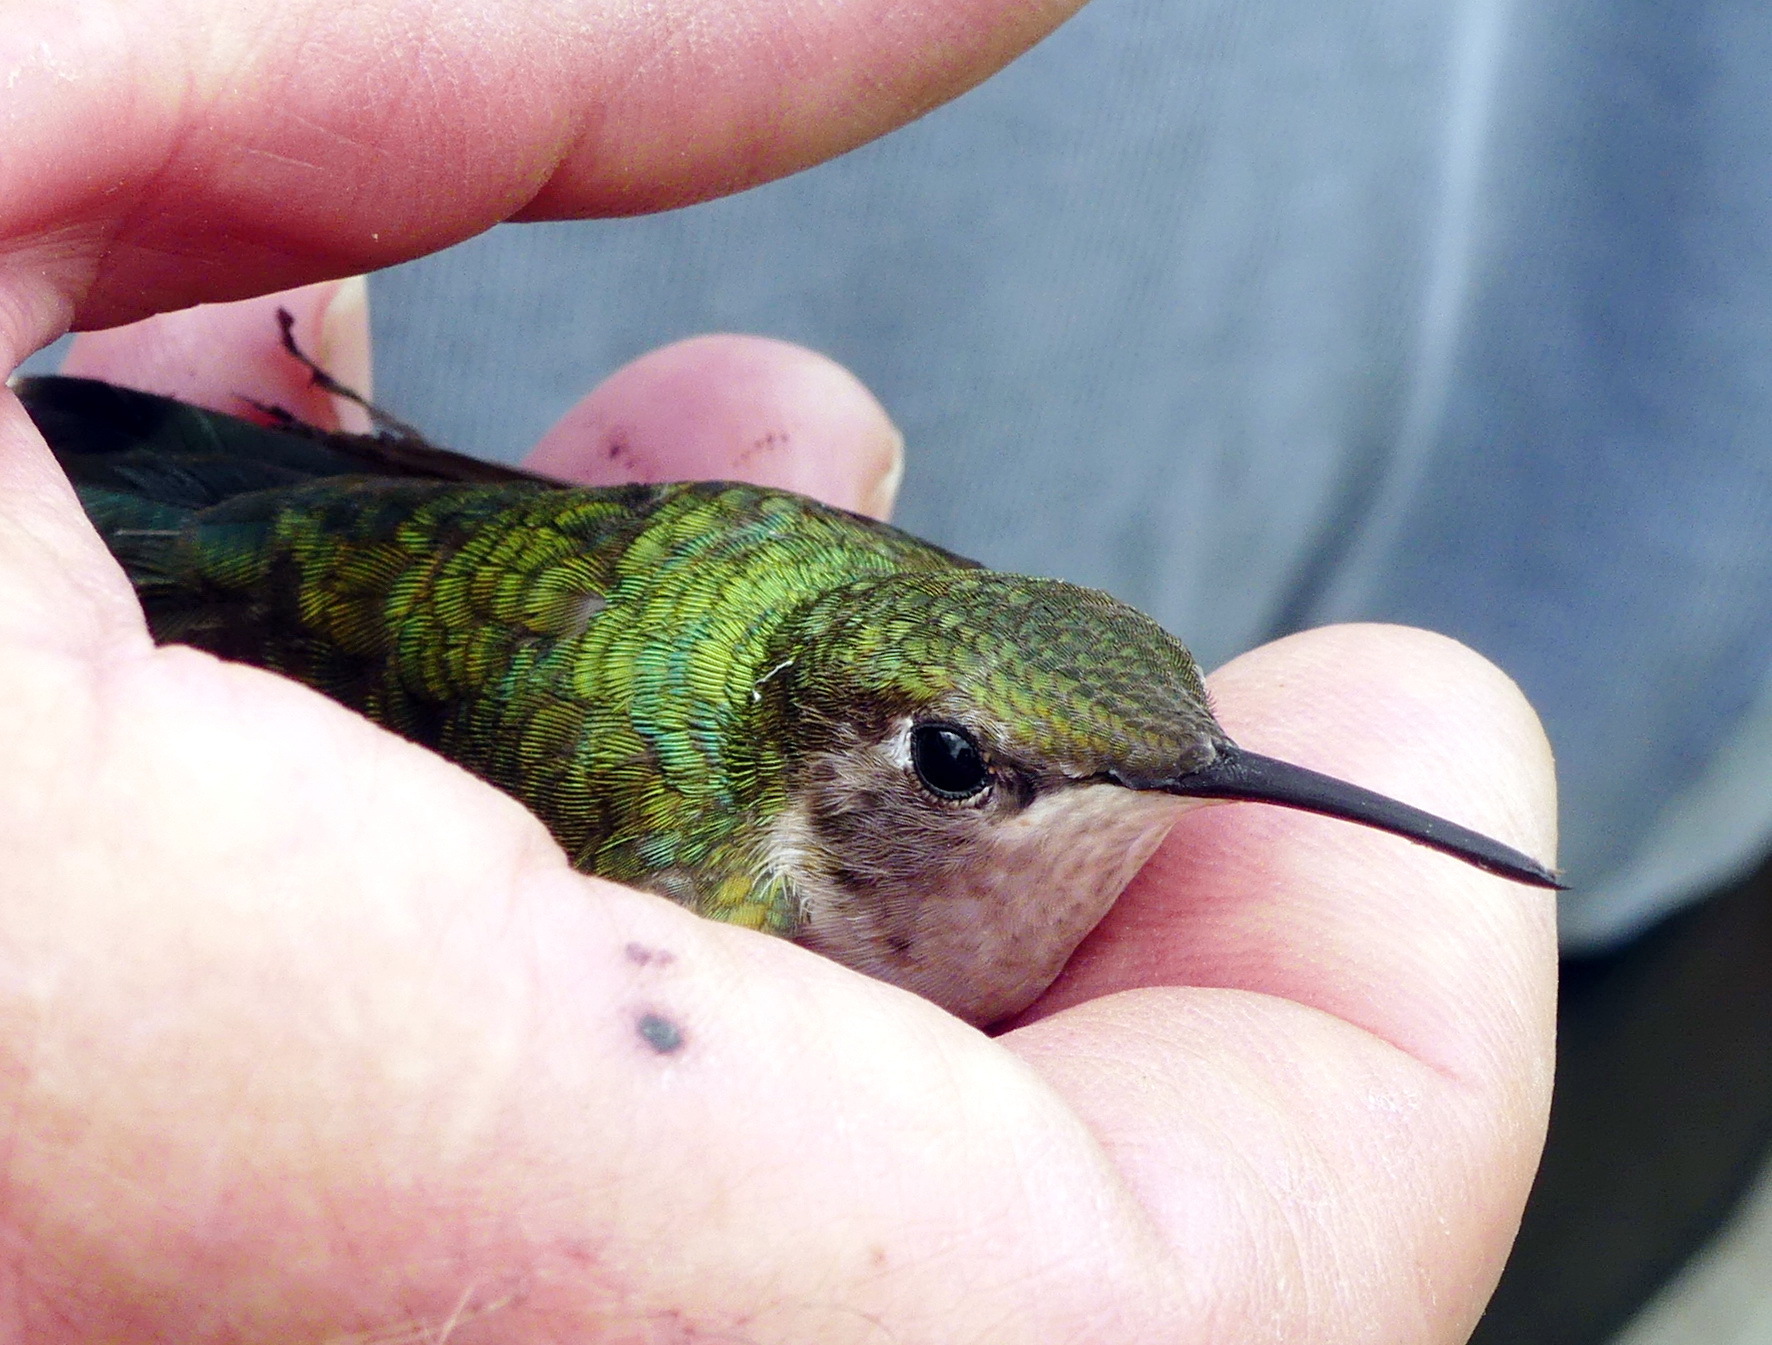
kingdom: Animalia
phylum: Chordata
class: Aves
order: Apodiformes
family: Trochilidae
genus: Archilochus
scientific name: Archilochus colubris
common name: Ruby-throated hummingbird
